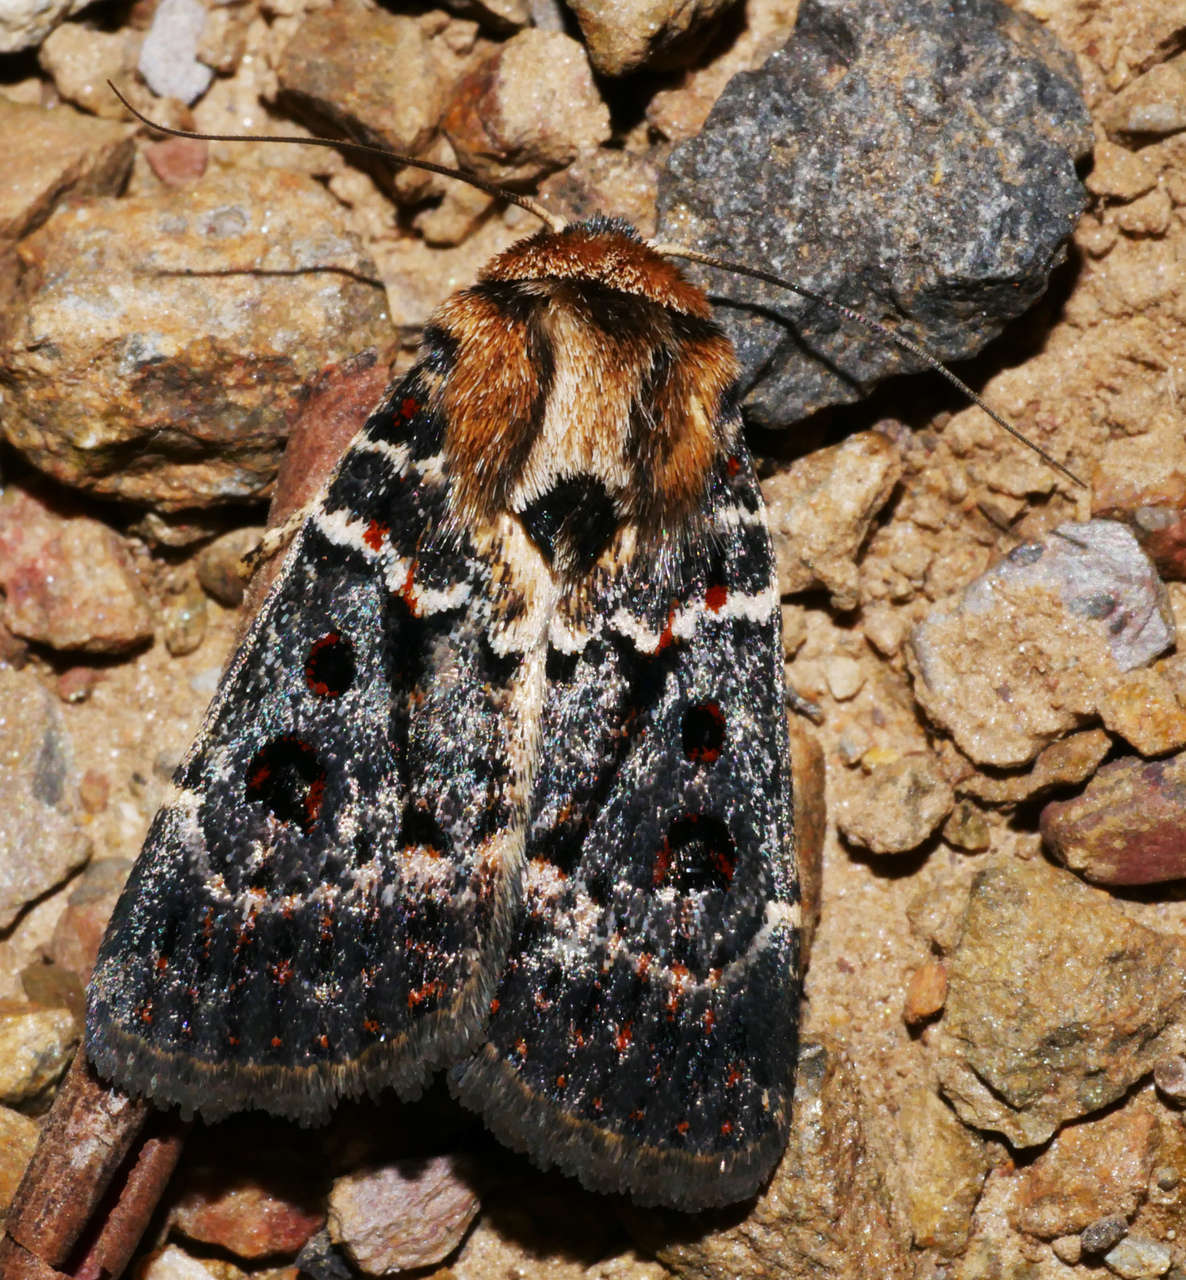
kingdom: Animalia
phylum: Arthropoda
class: Insecta
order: Lepidoptera
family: Noctuidae
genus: Proteuxoa
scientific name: Proteuxoa sanguinipuncta
